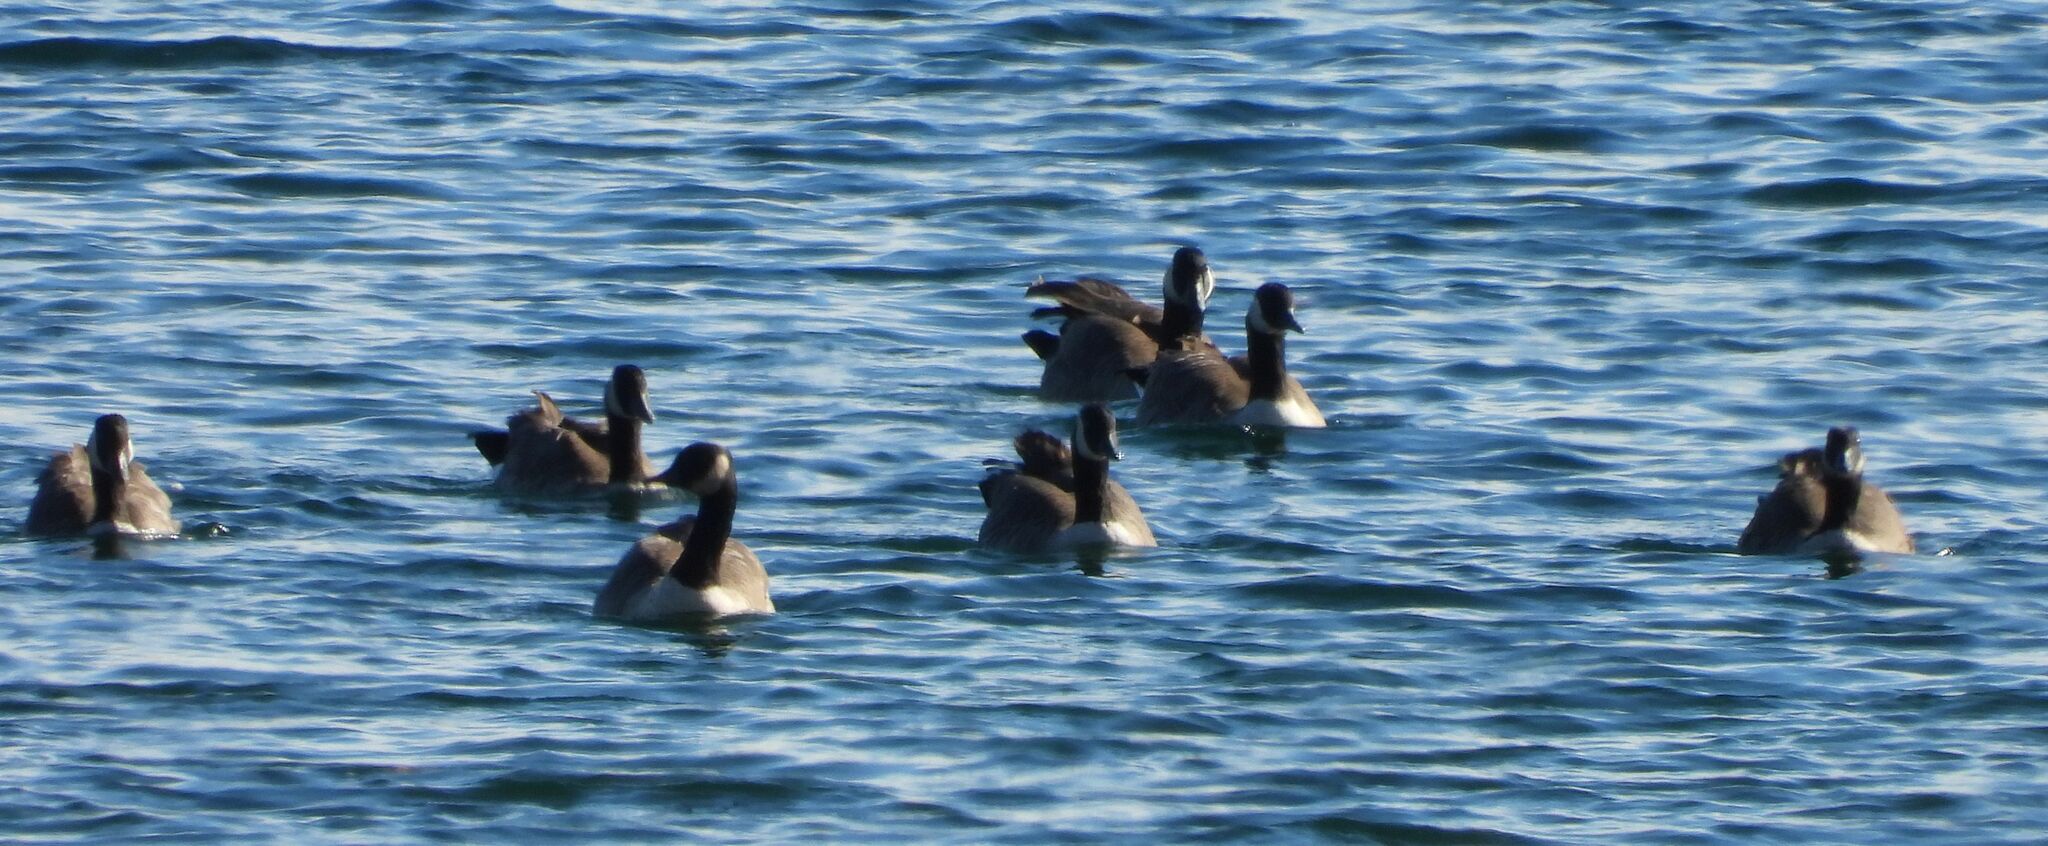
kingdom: Animalia
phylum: Chordata
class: Aves
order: Anseriformes
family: Anatidae
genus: Branta
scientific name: Branta canadensis
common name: Canada goose
